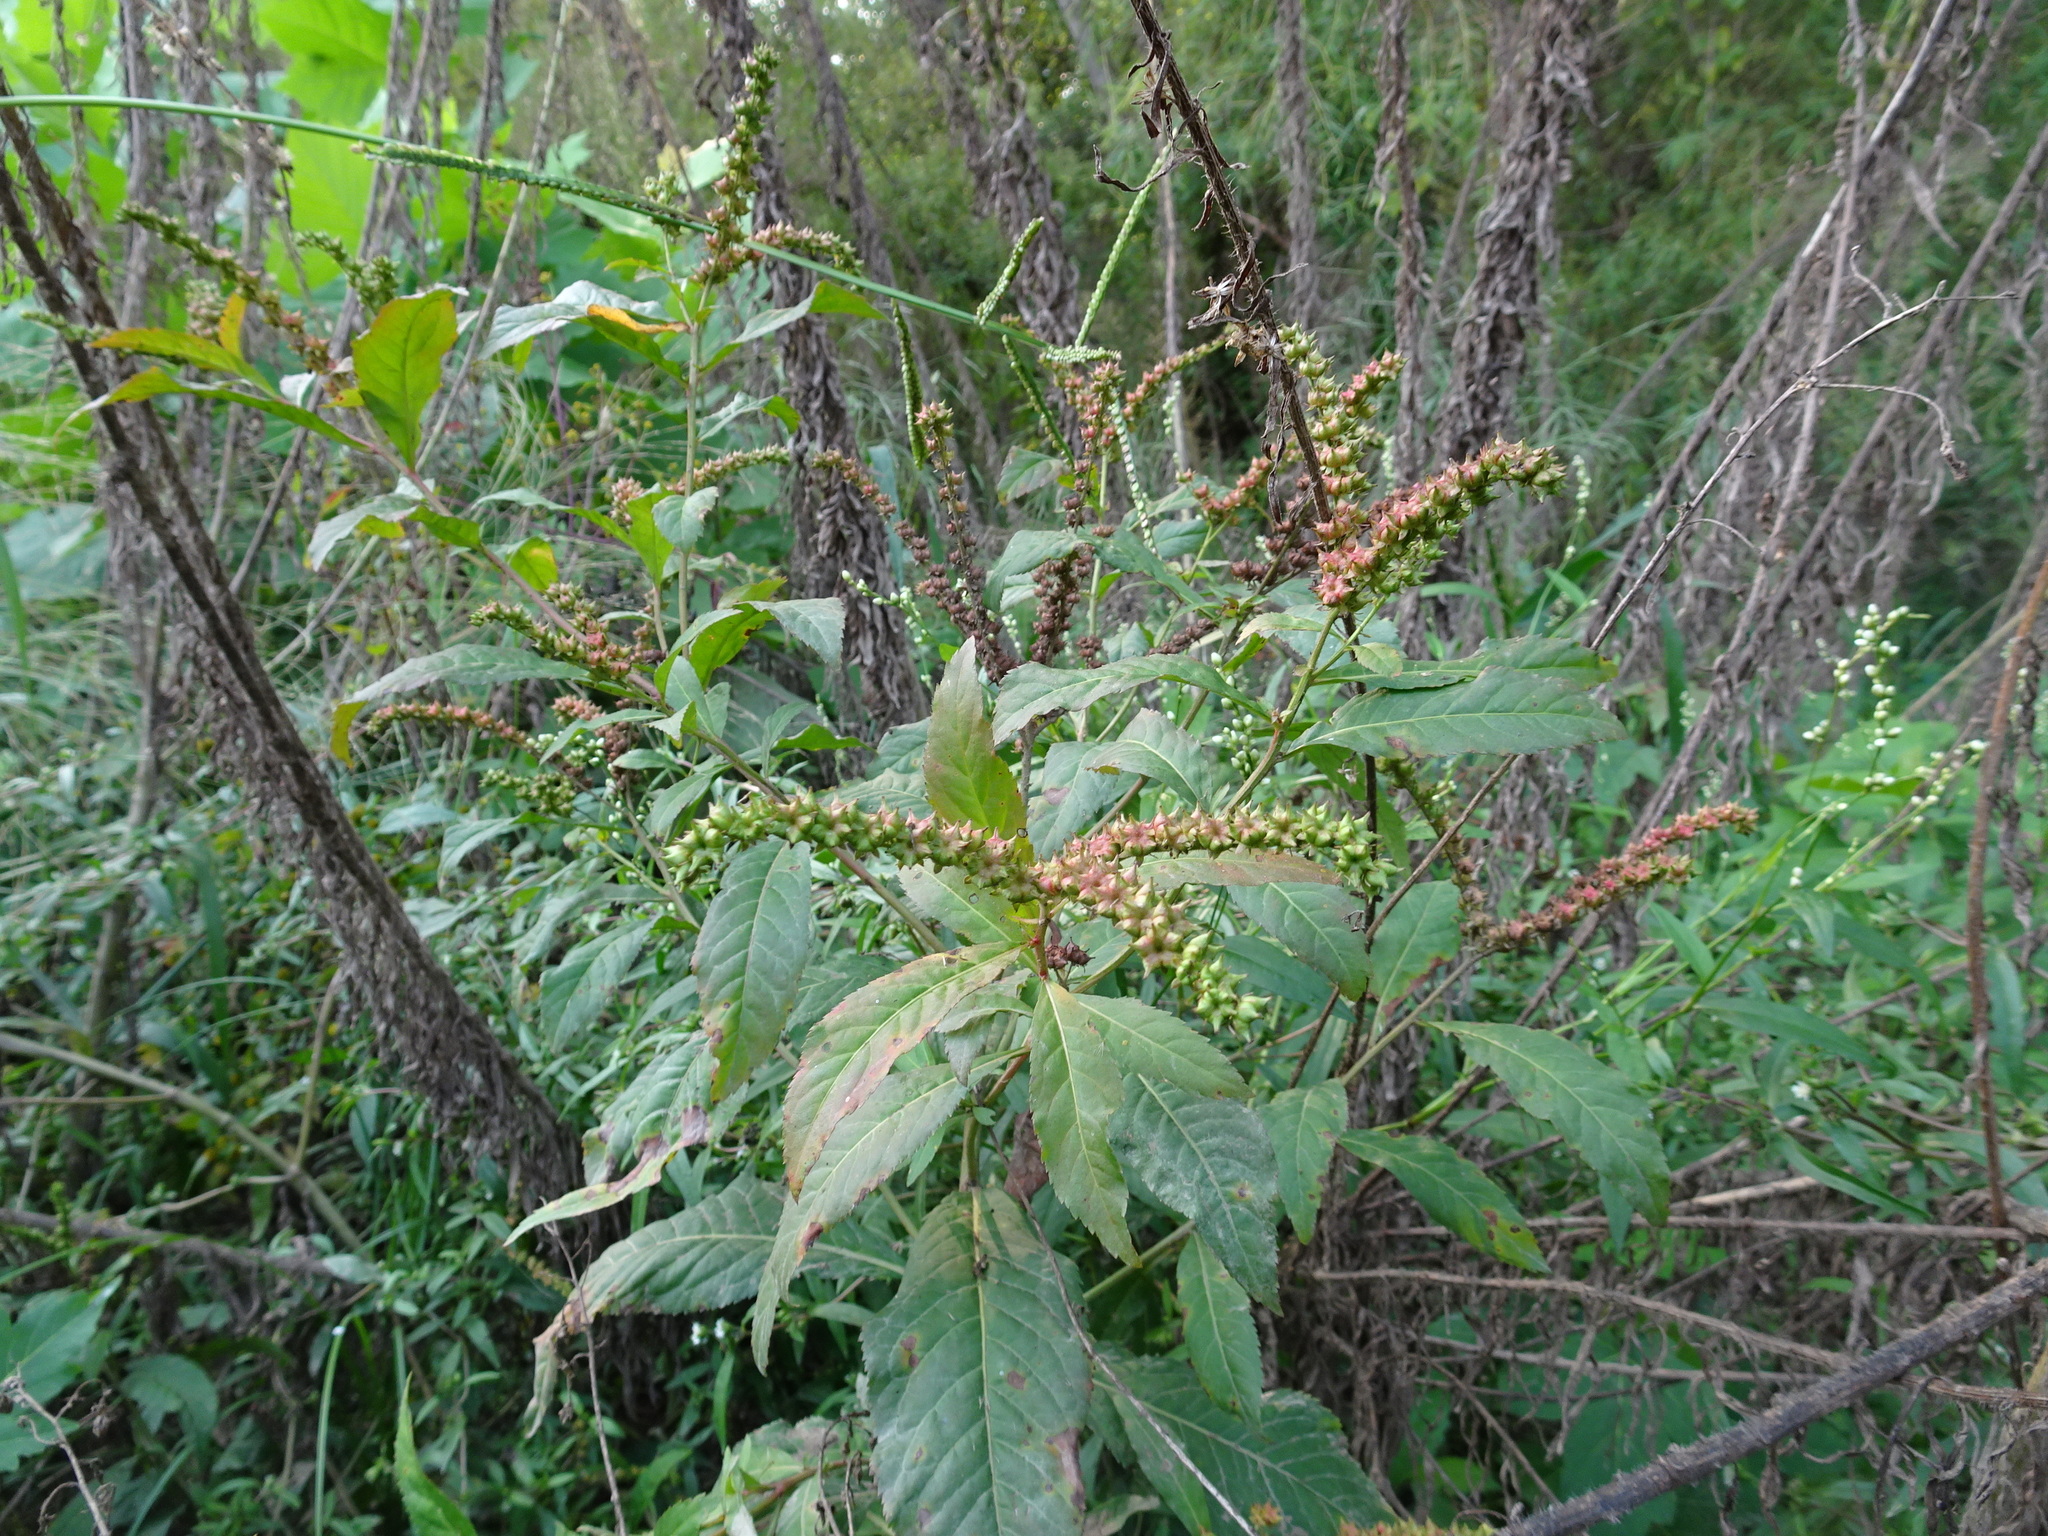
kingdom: Plantae
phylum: Tracheophyta
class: Magnoliopsida
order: Saxifragales
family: Penthoraceae
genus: Penthorum
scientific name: Penthorum sedoides
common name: Ditch stonecrop
